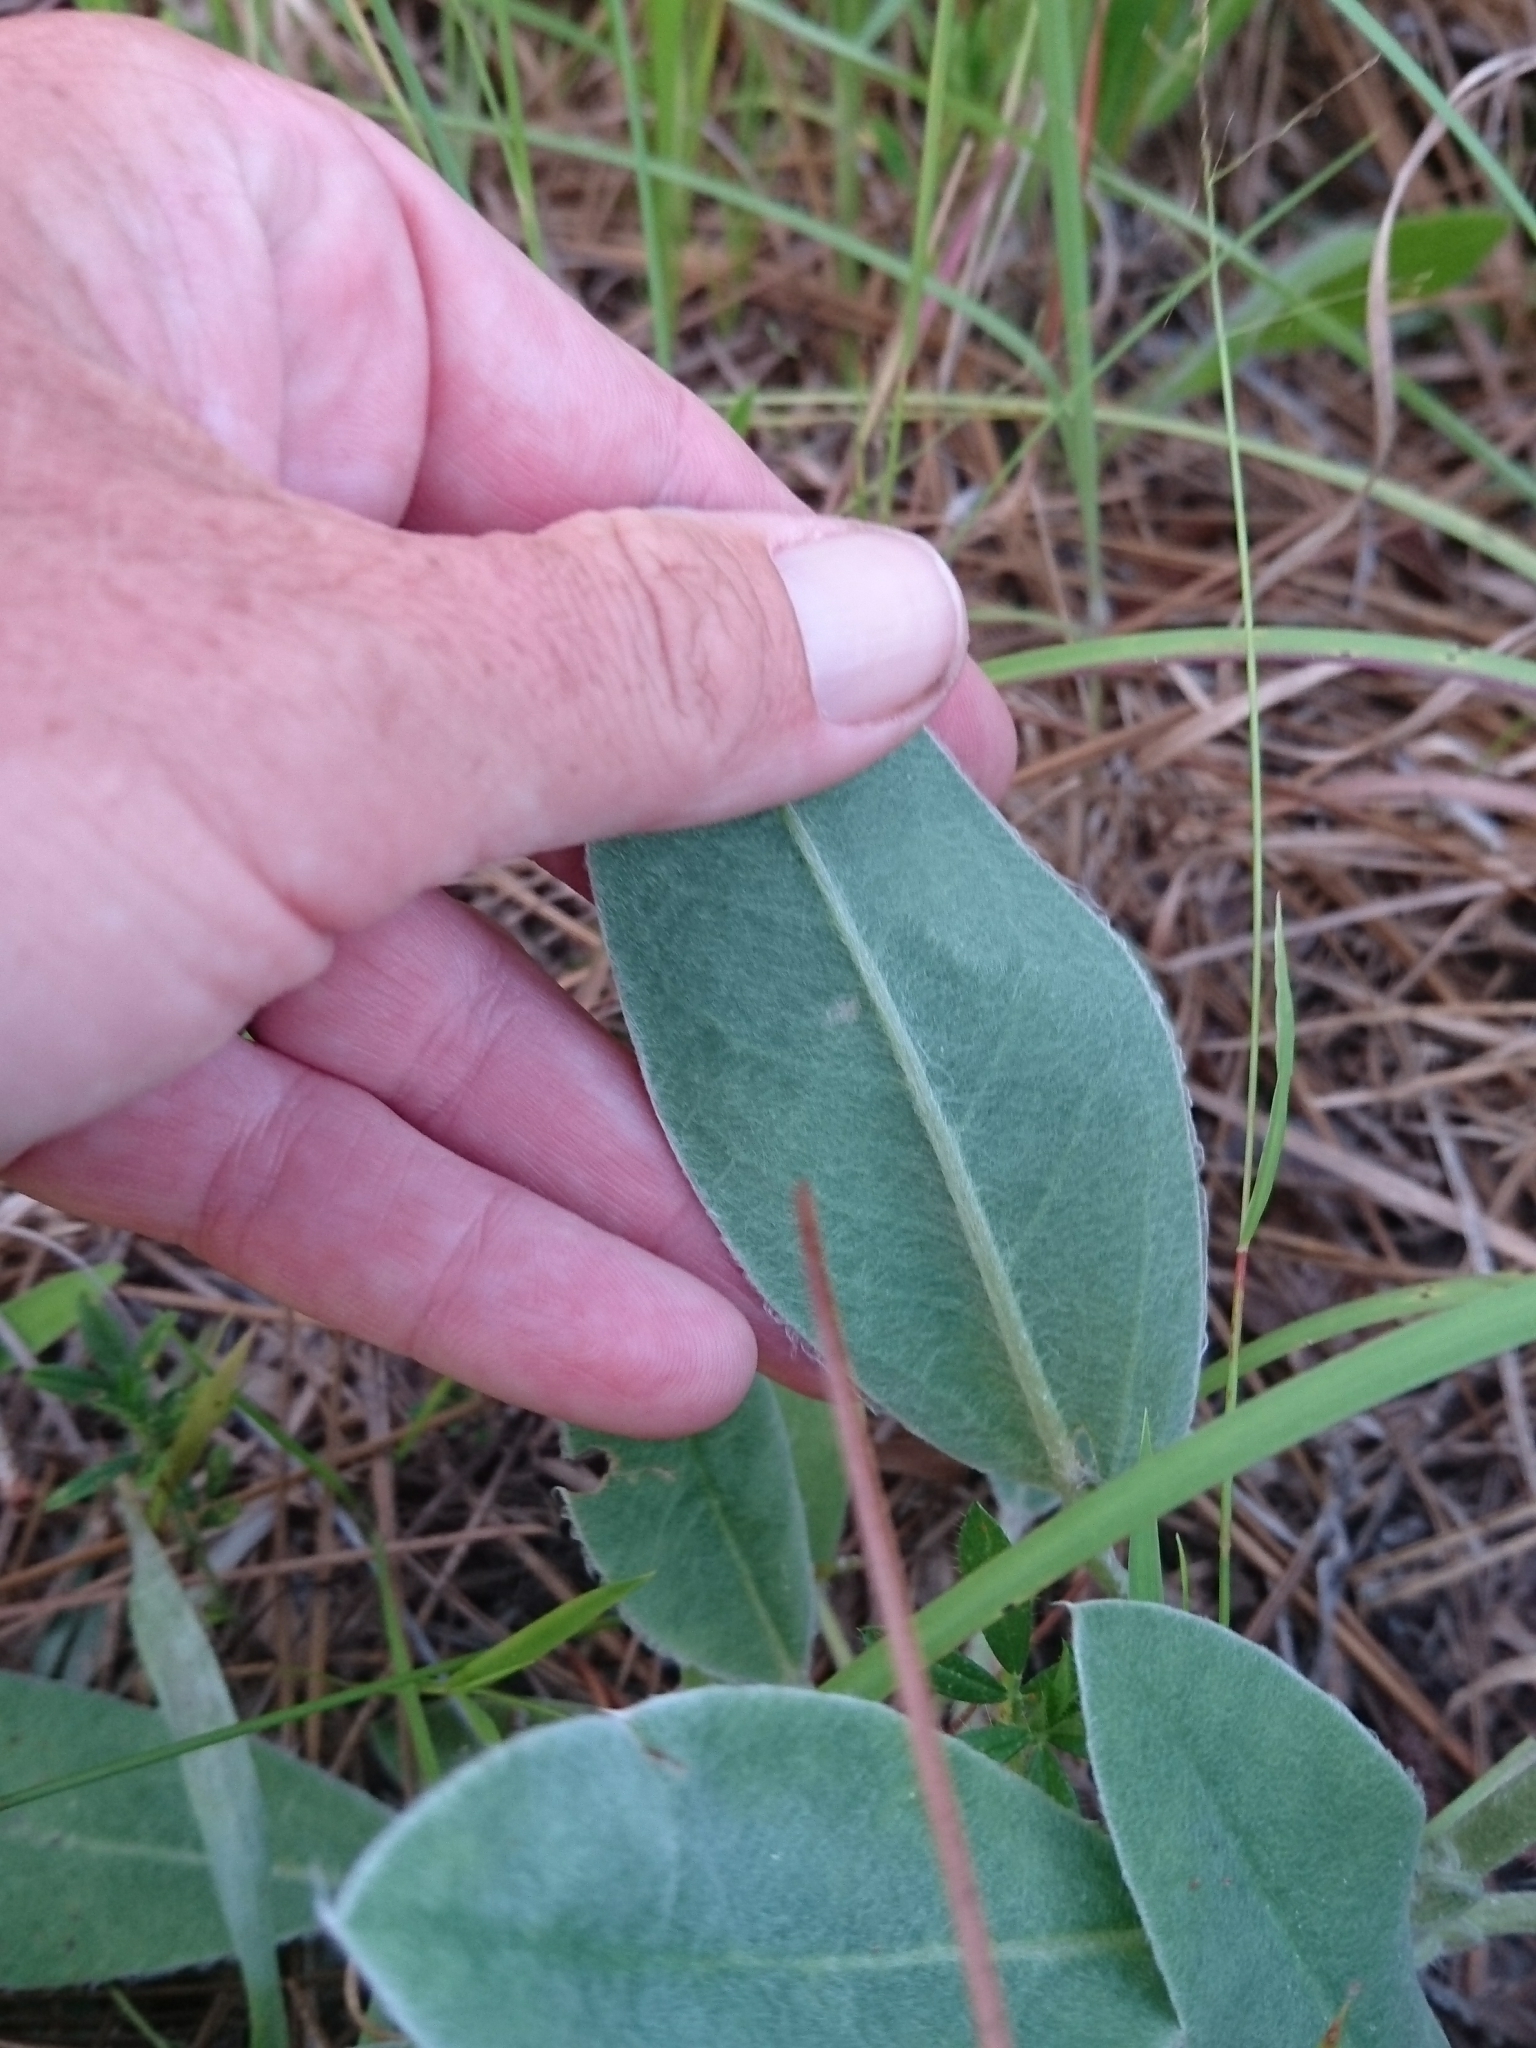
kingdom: Plantae
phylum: Tracheophyta
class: Magnoliopsida
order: Fabales
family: Fabaceae
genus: Lupinus
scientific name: Lupinus villosus
